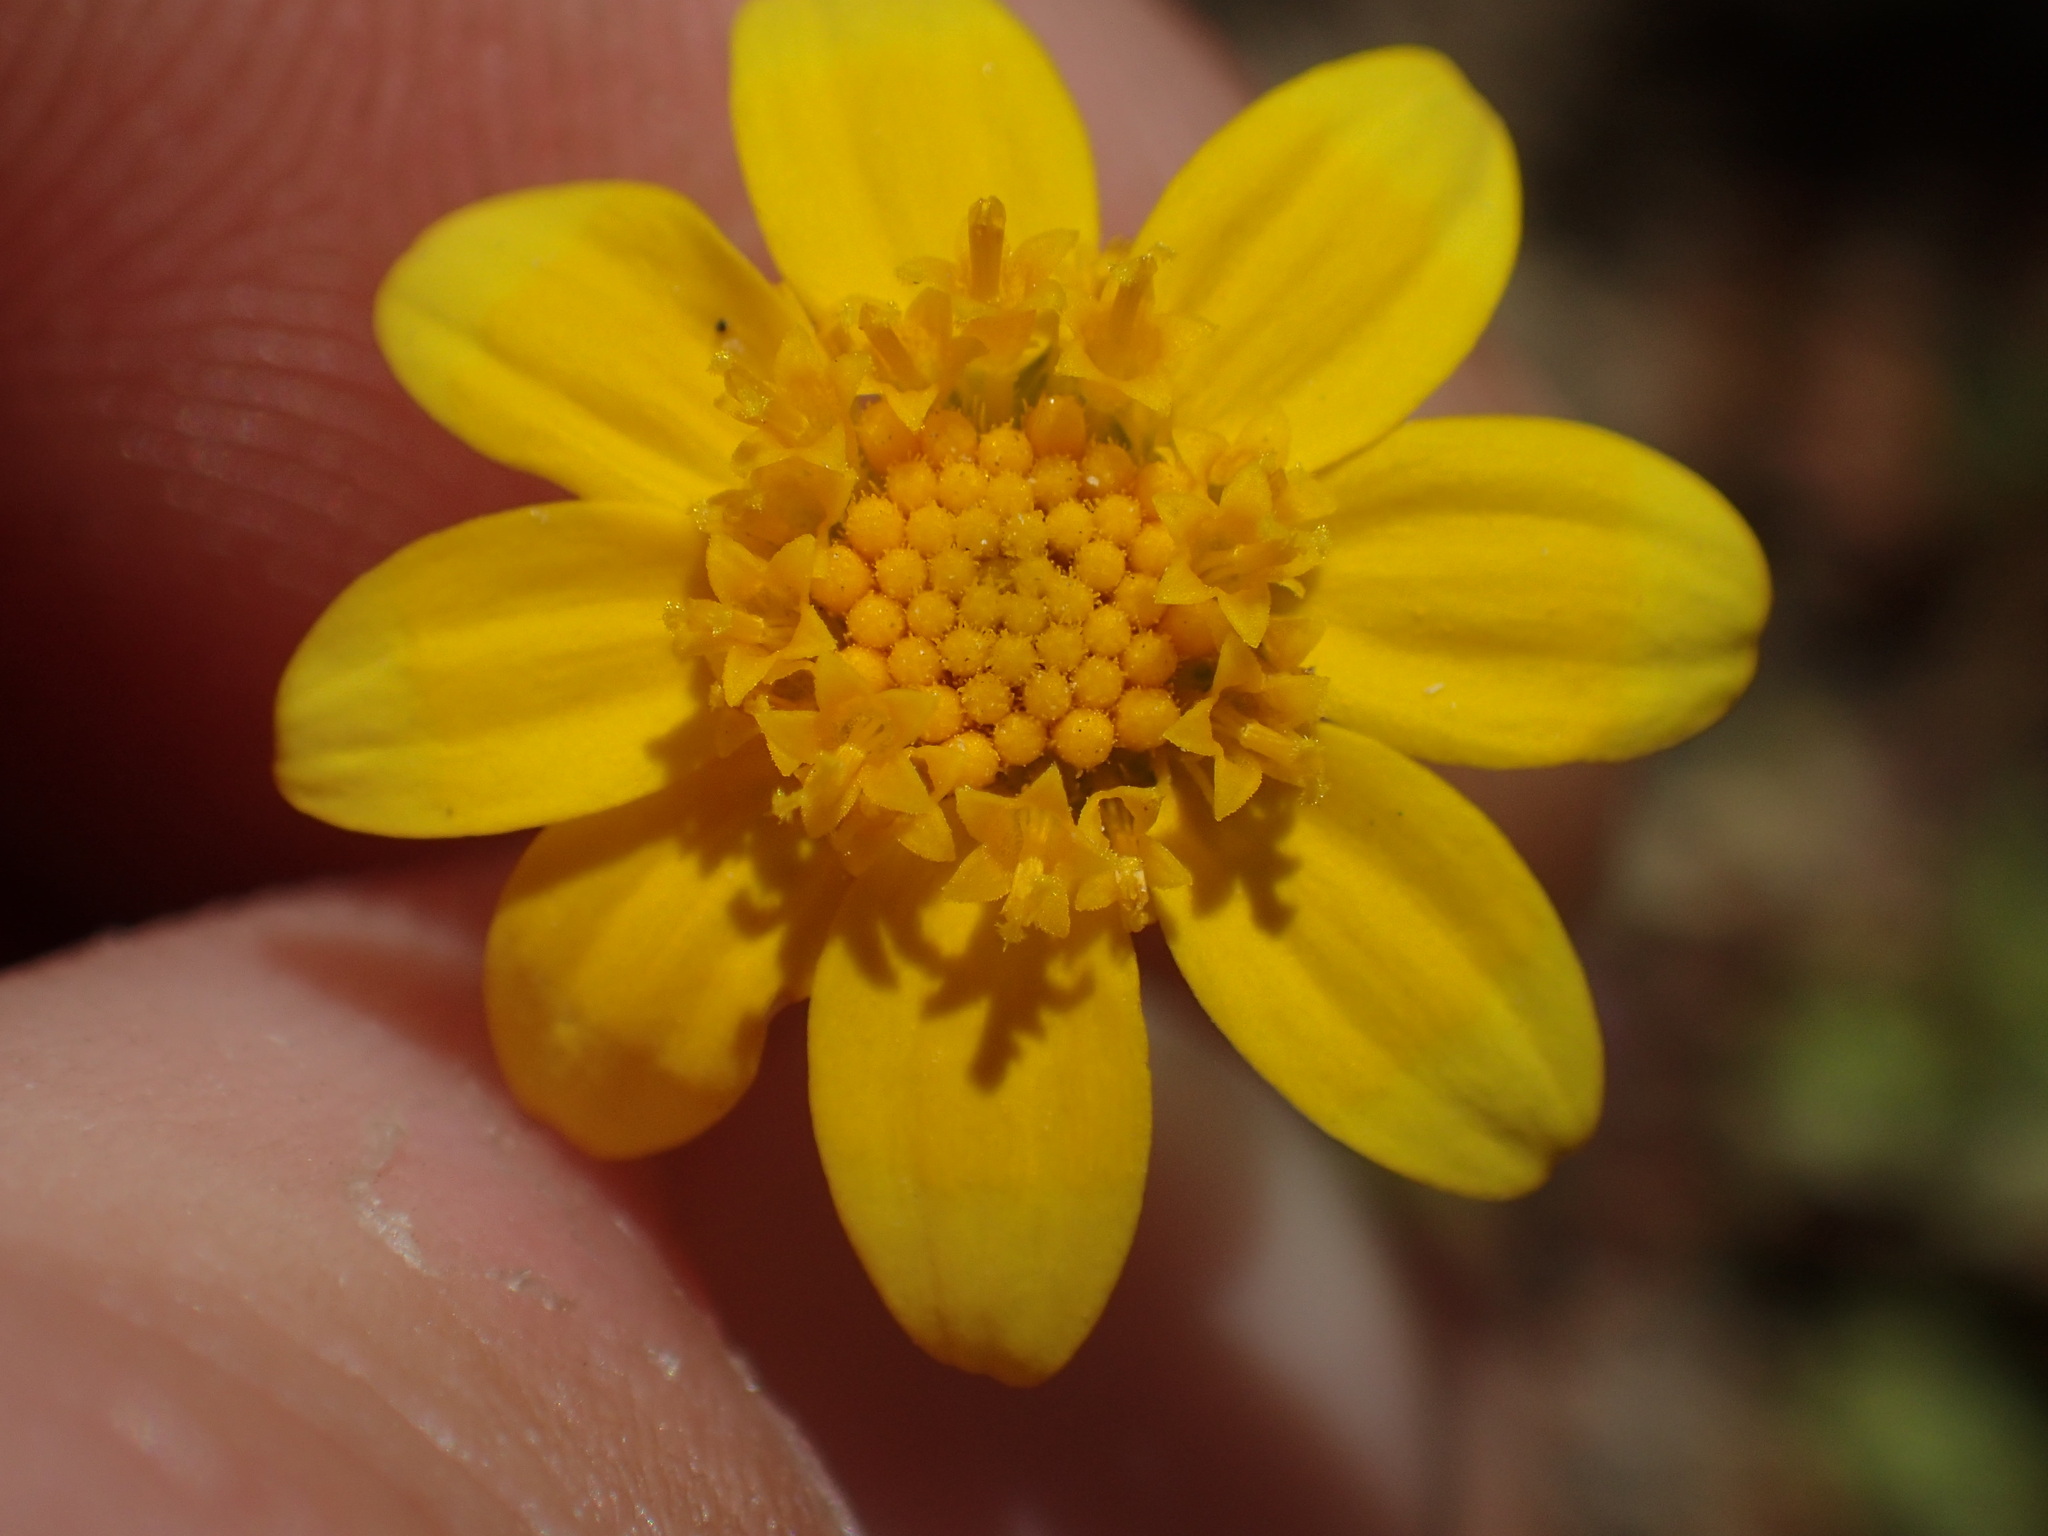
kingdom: Plantae
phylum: Tracheophyta
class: Magnoliopsida
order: Asterales
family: Asteraceae
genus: Lasthenia
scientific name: Lasthenia gracilis
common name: Common goldfields
